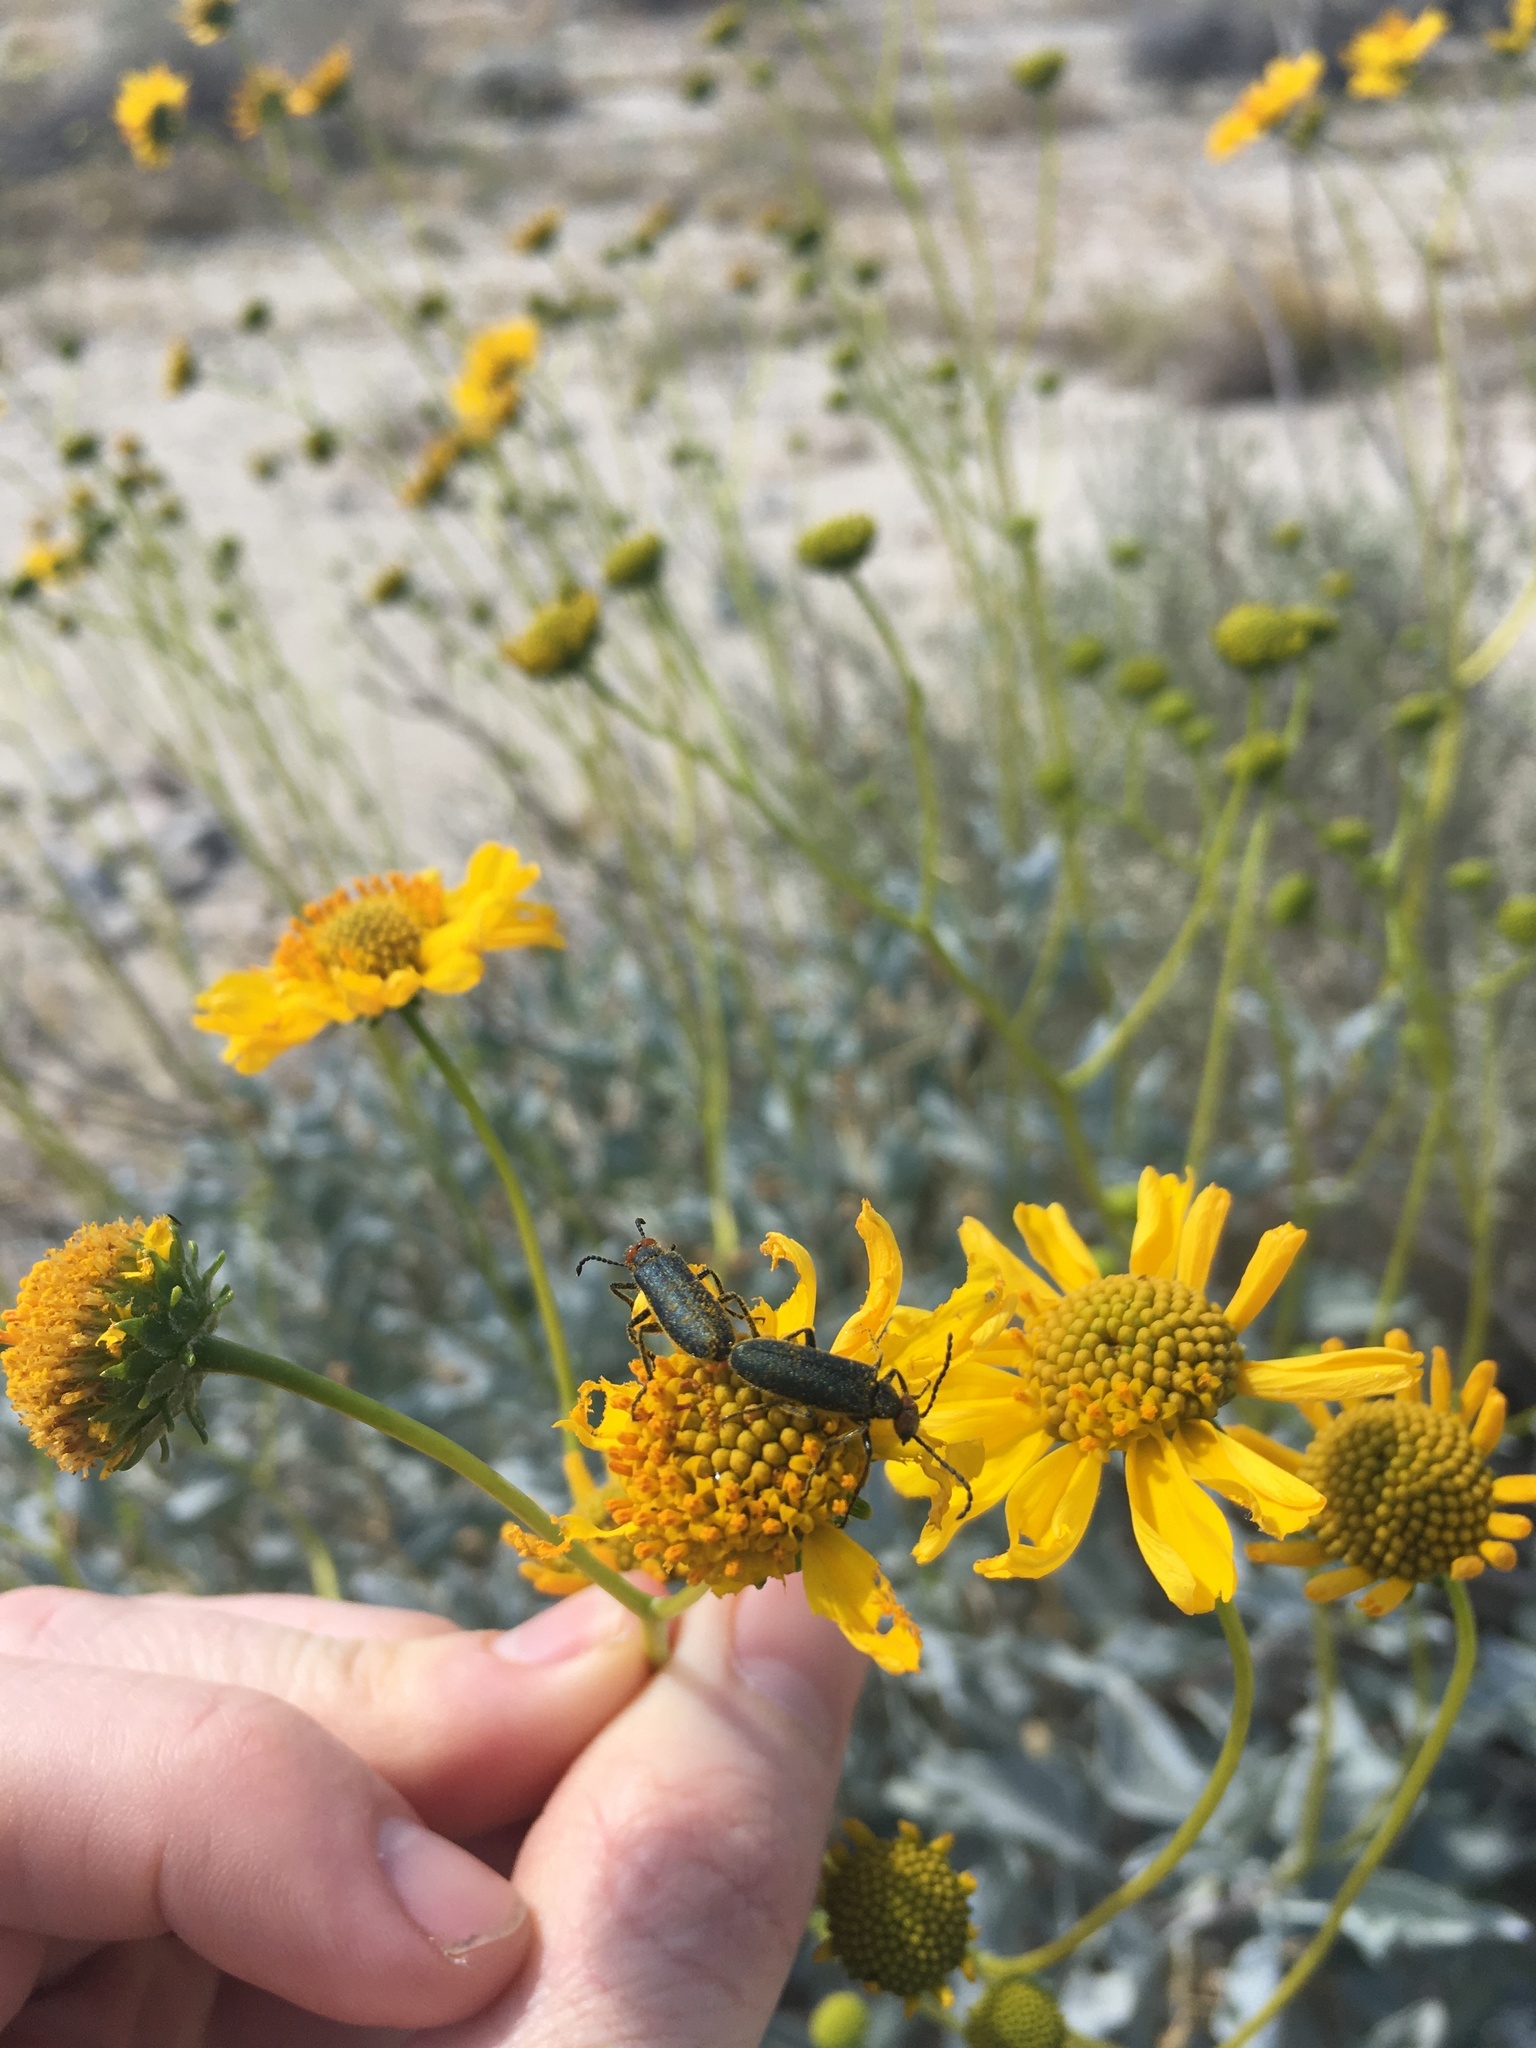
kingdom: Animalia
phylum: Arthropoda
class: Insecta
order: Coleoptera
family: Meloidae
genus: Lytta
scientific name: Lytta auriculata
